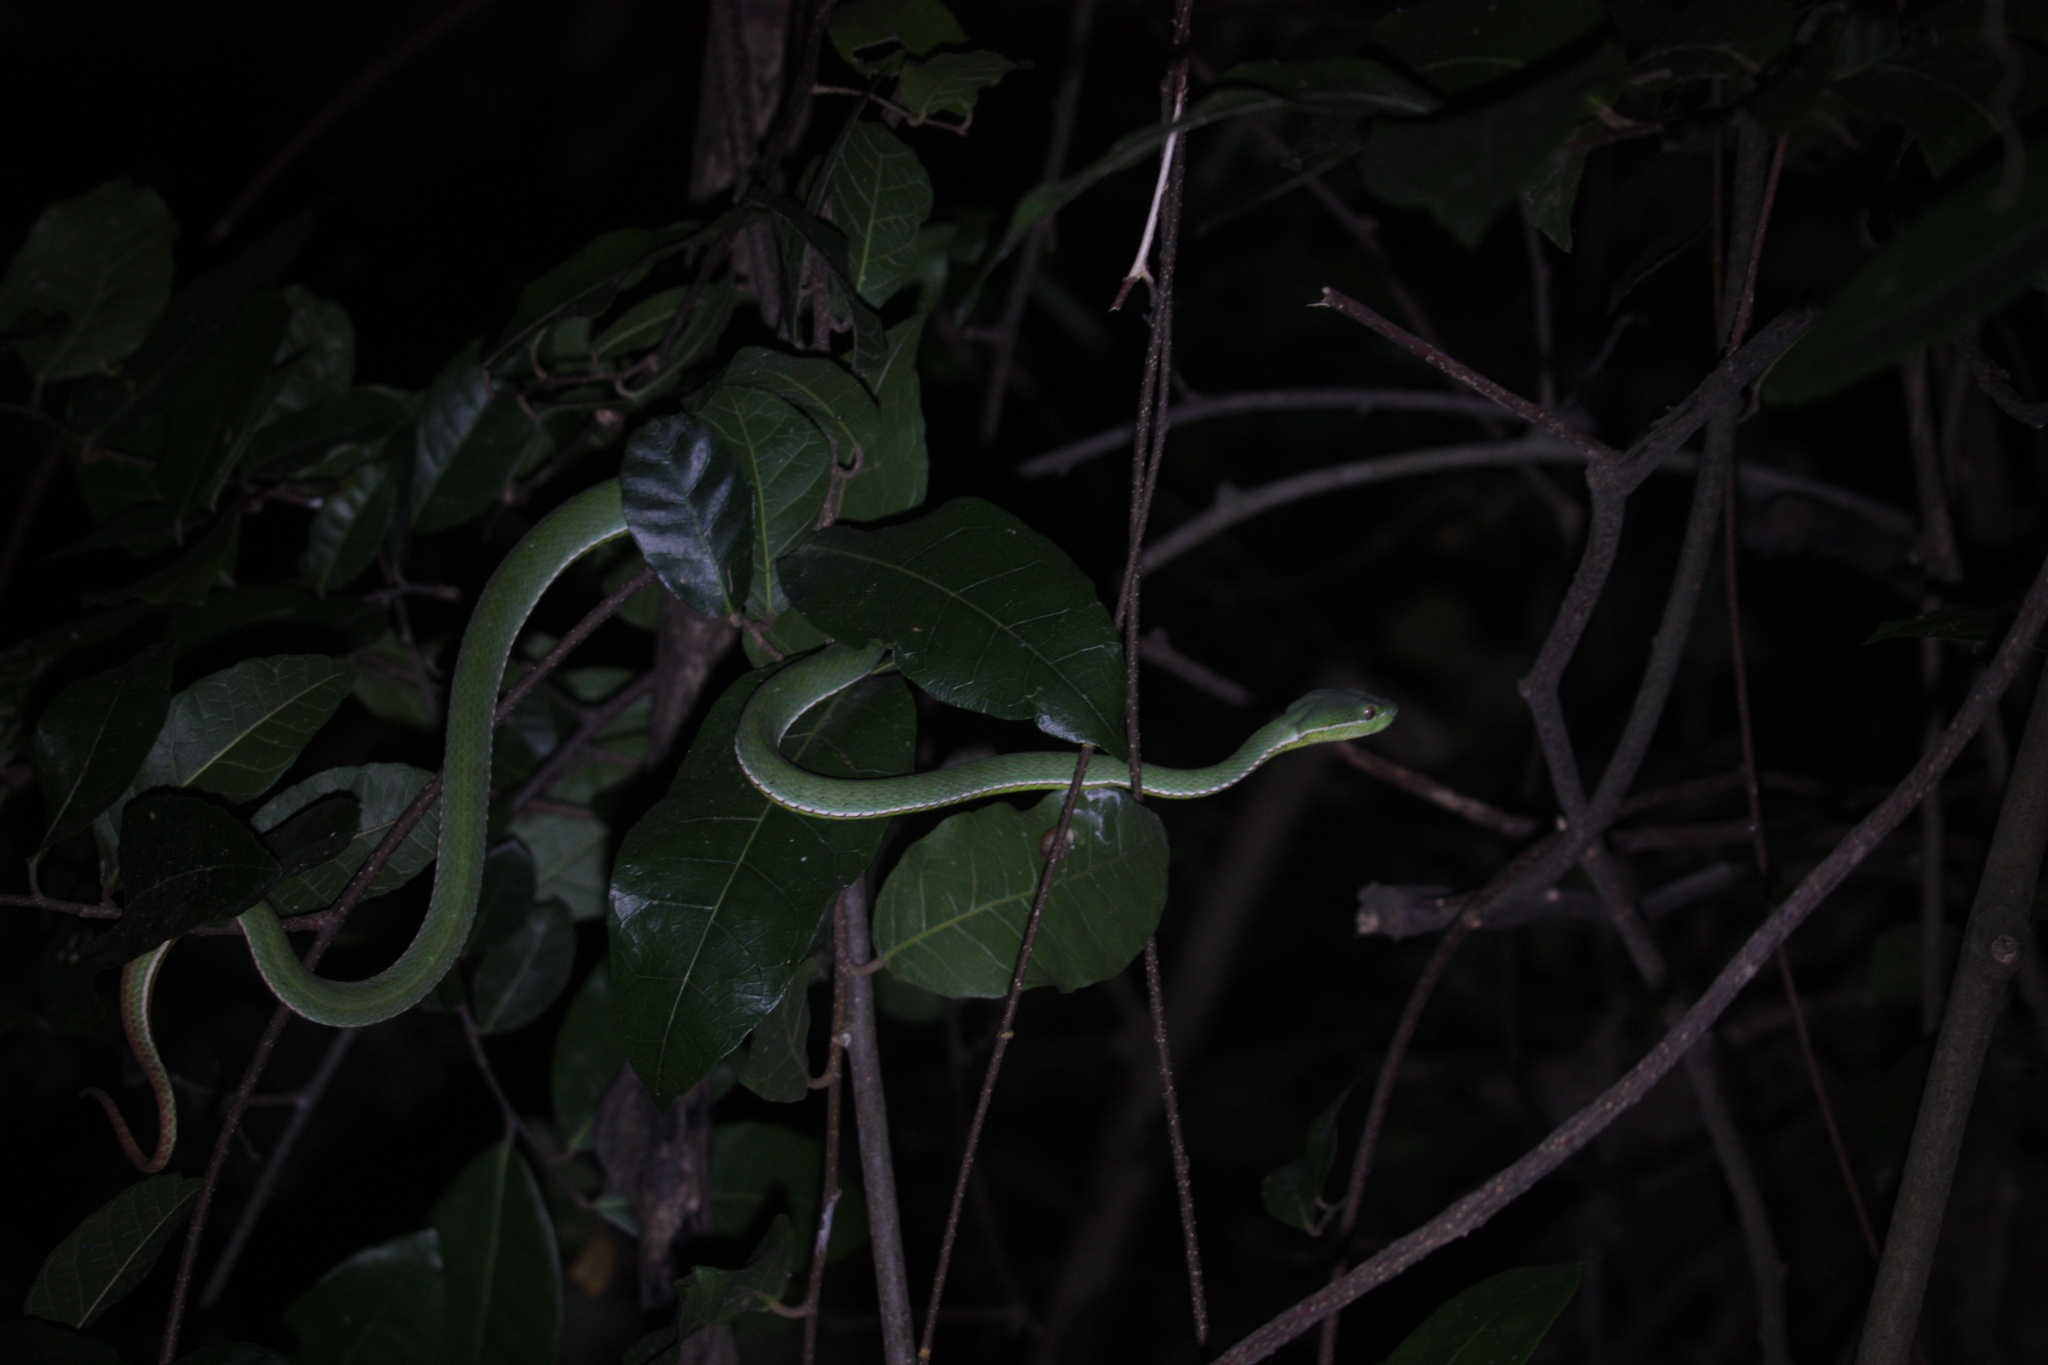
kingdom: Animalia
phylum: Chordata
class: Squamata
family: Viperidae
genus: Trimeresurus
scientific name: Trimeresurus stejnegeri
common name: Chen’s bamboo pit viper
